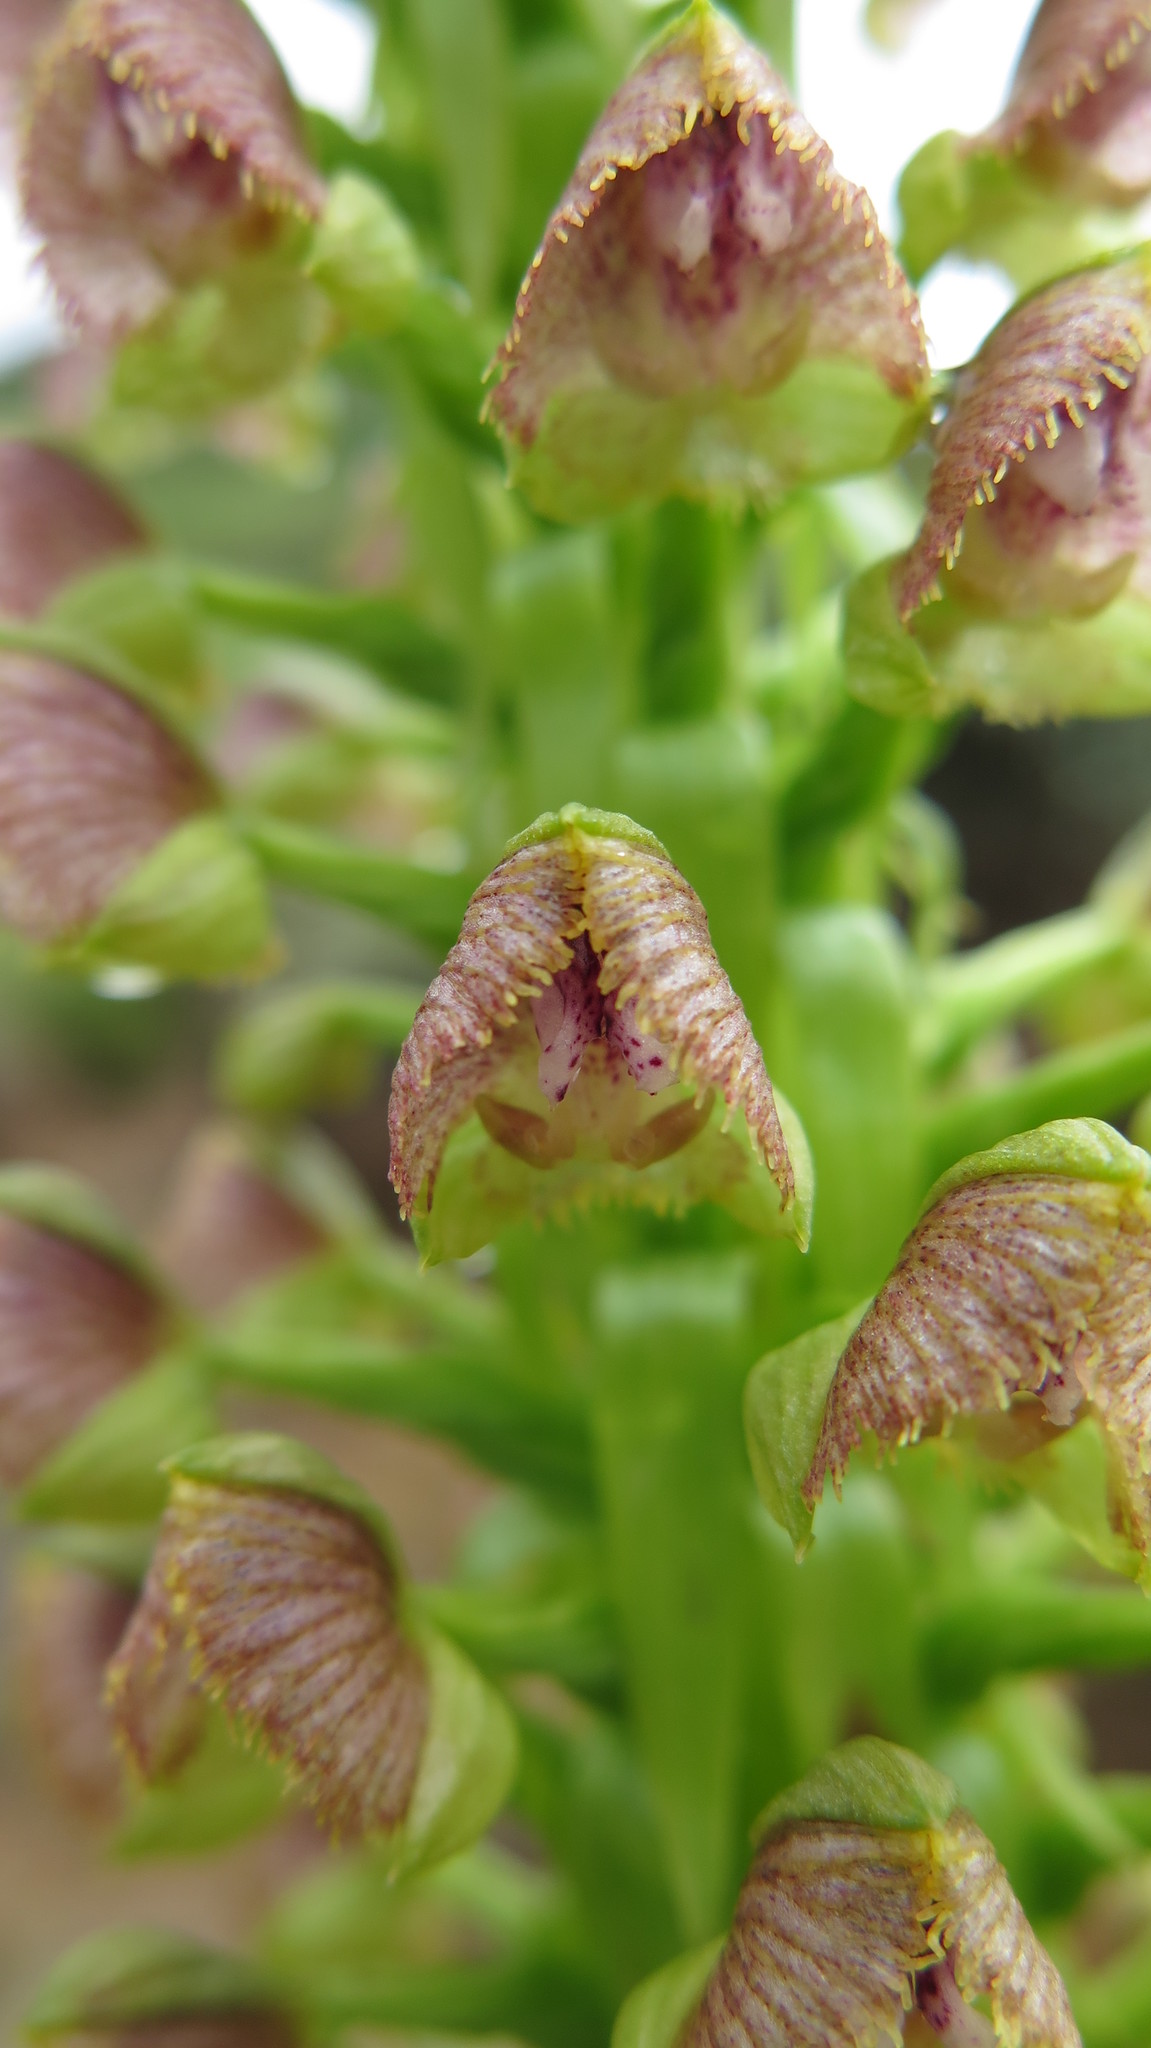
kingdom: Plantae
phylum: Tracheophyta
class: Liliopsida
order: Asparagales
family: Orchidaceae
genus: Pterygodium
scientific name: Pterygodium magnum
